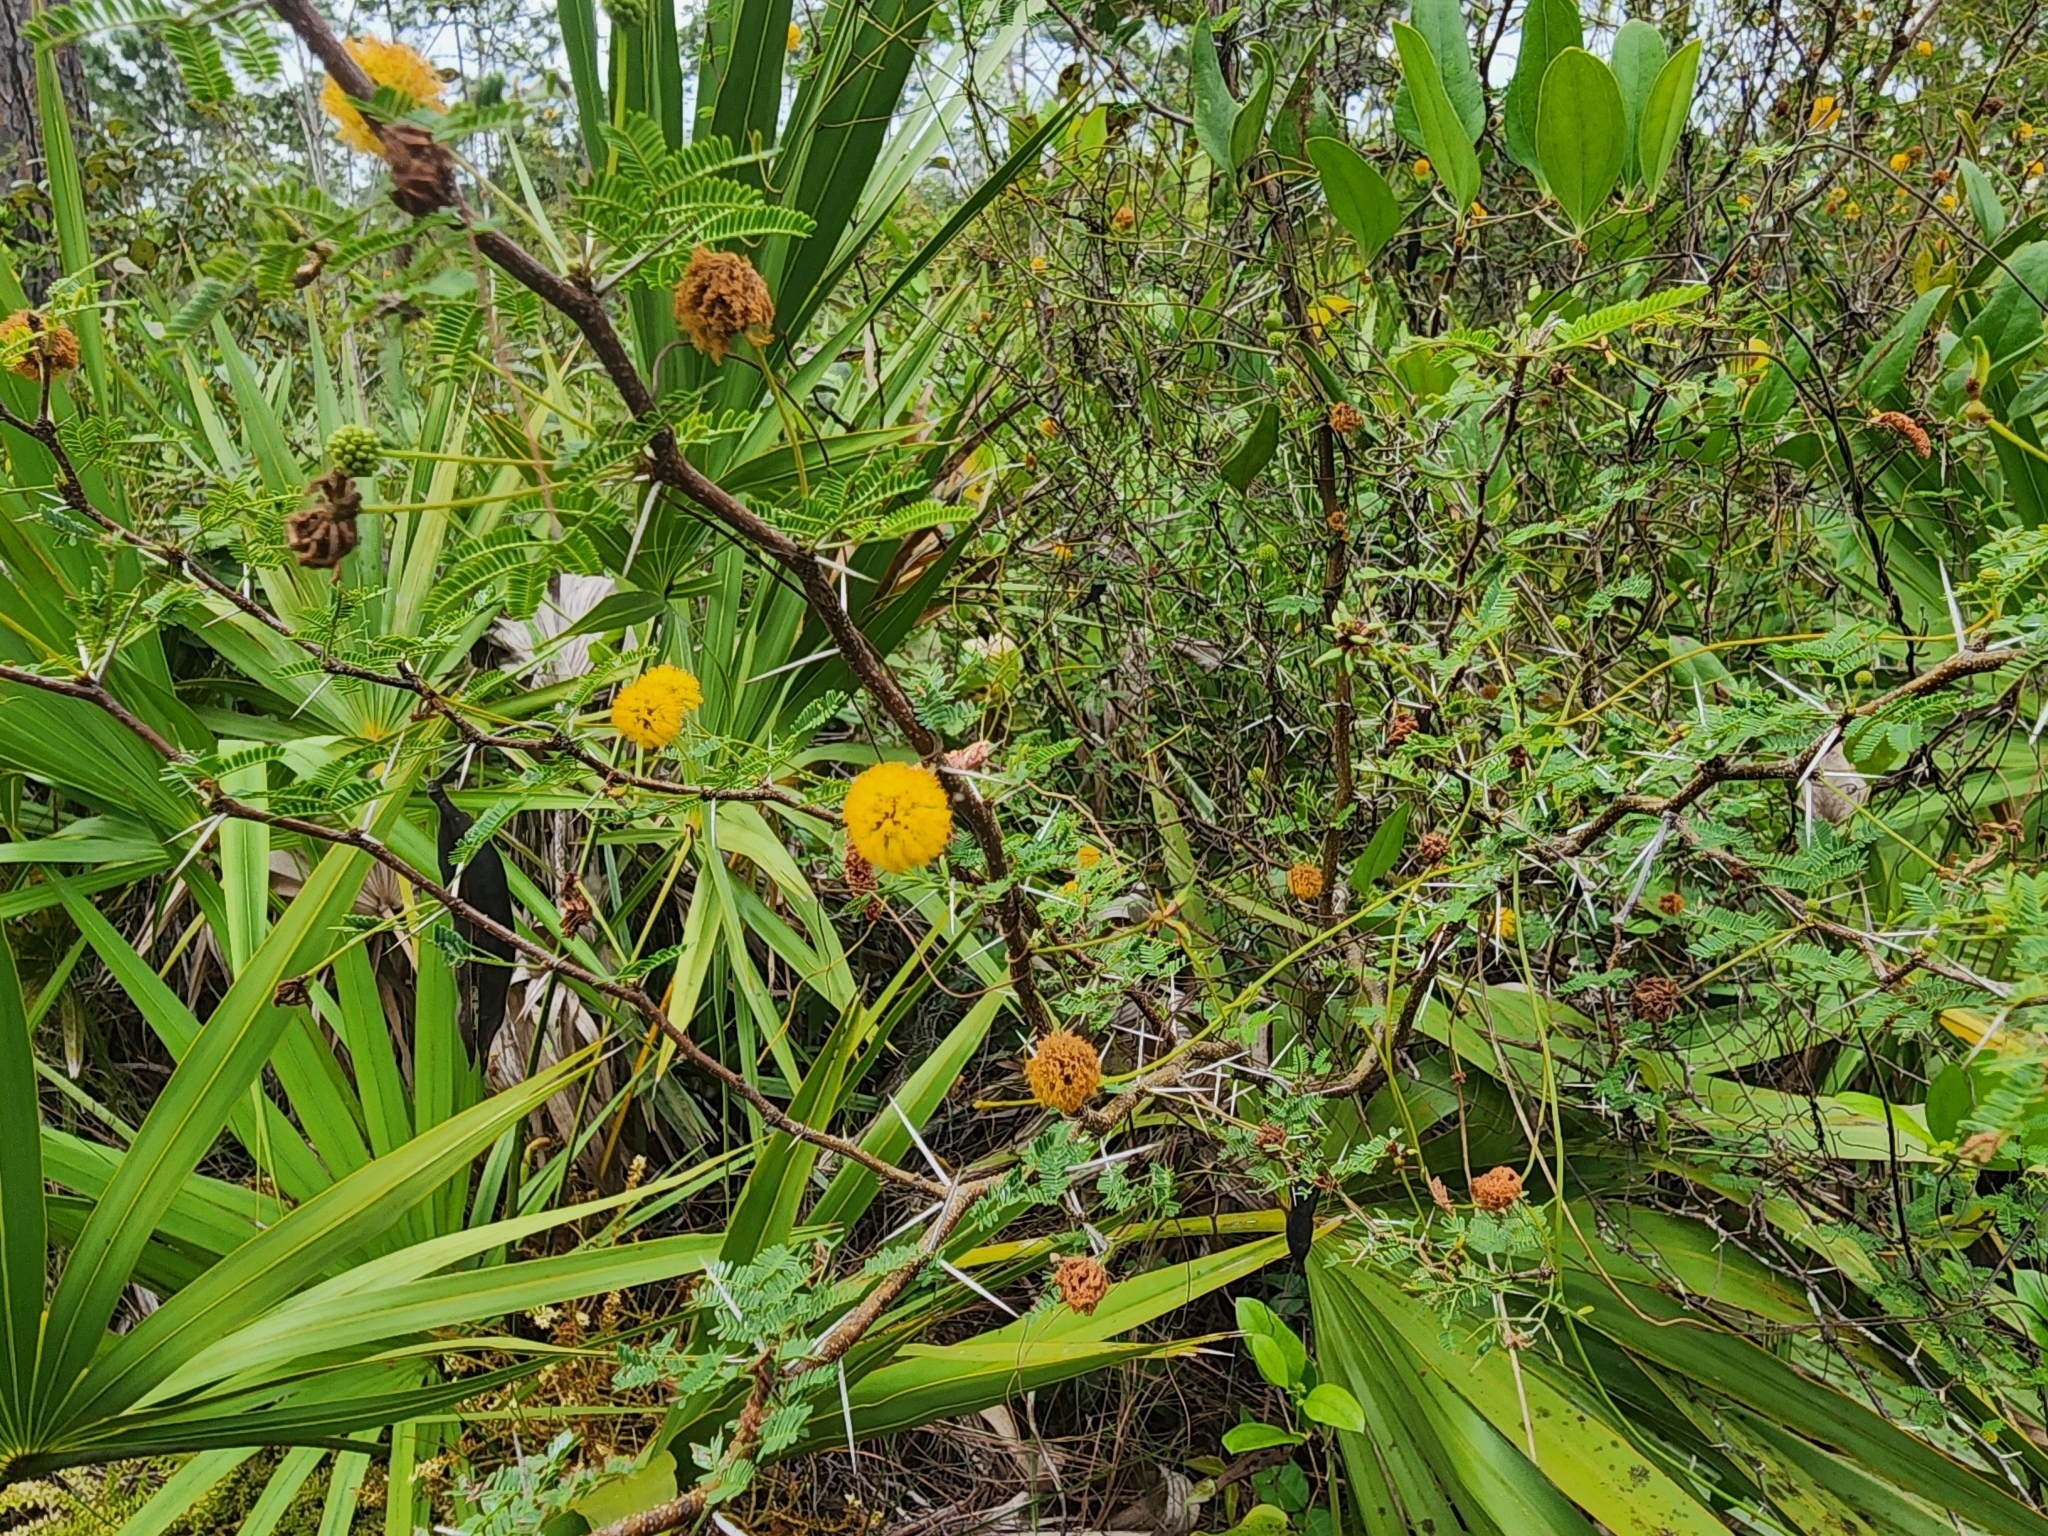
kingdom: Plantae
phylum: Tracheophyta
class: Magnoliopsida
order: Fabales
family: Fabaceae
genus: Vachellia
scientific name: Vachellia farnesiana
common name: Sweet acacia
